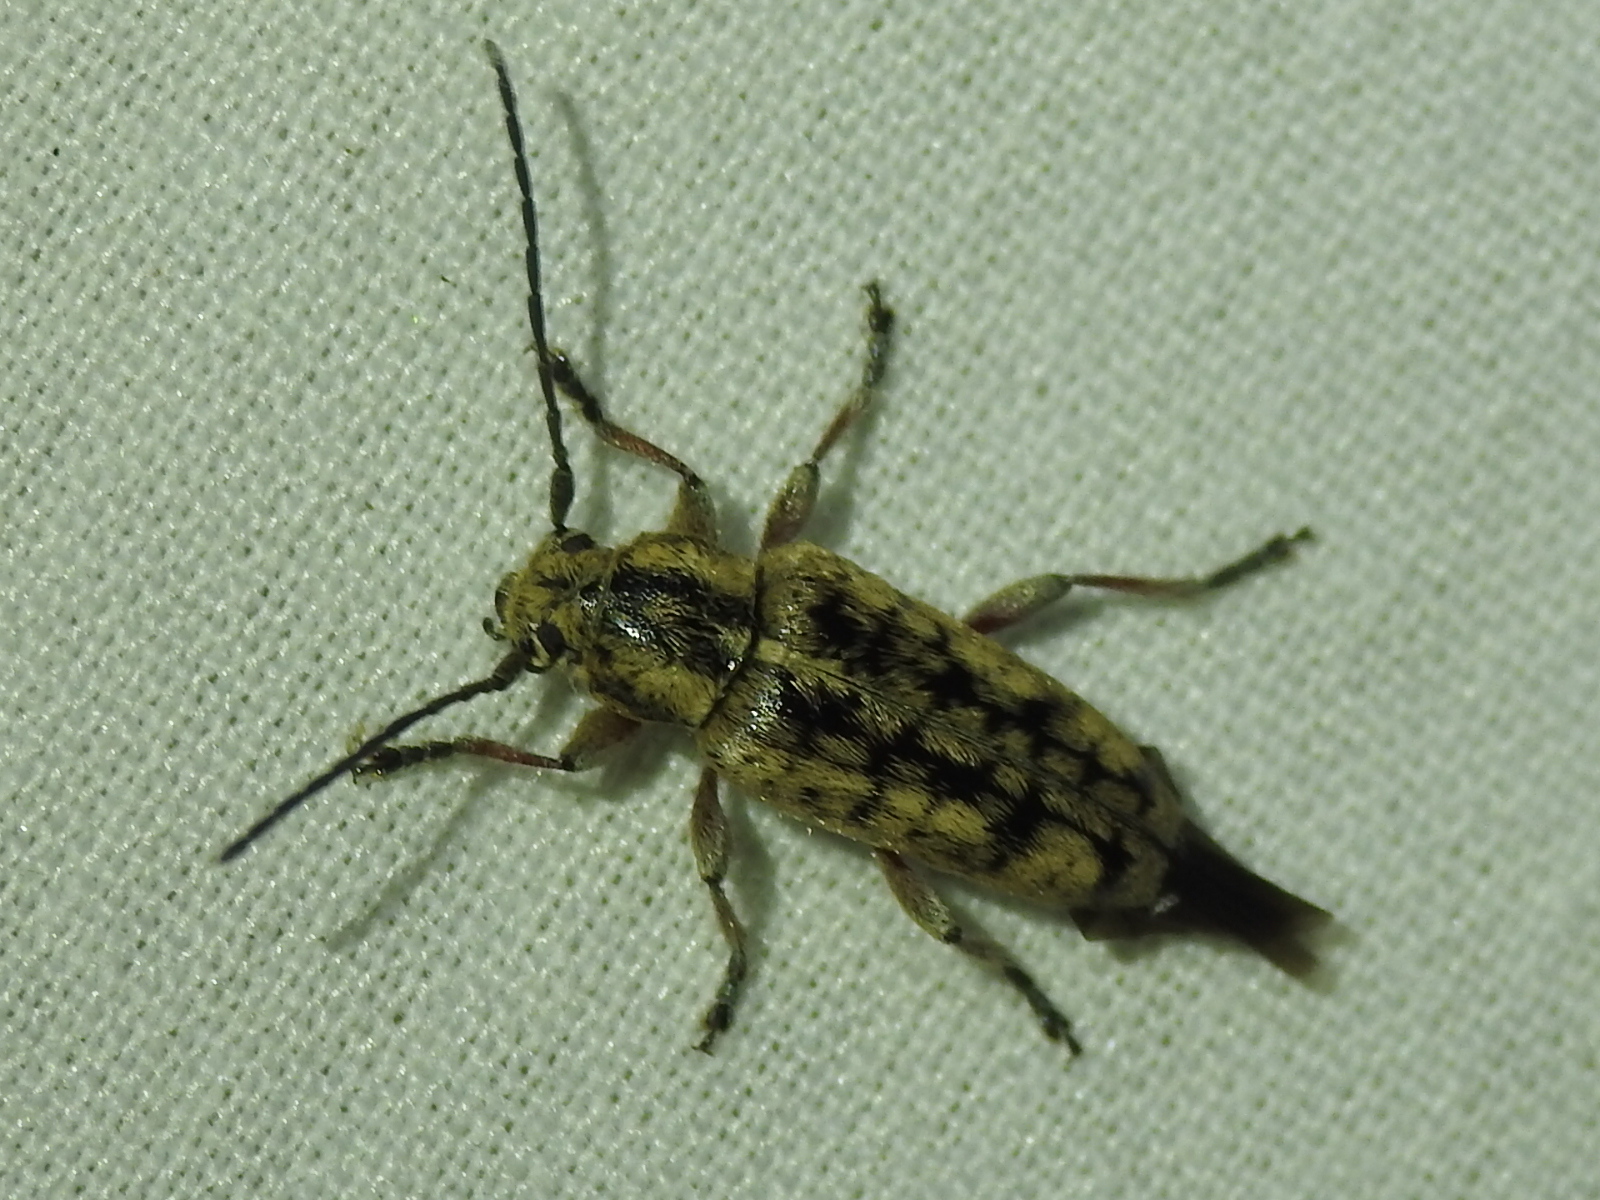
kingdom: Animalia
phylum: Arthropoda
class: Insecta
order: Coleoptera
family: Cerambycidae
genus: Atimia
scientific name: Atimia confusa
